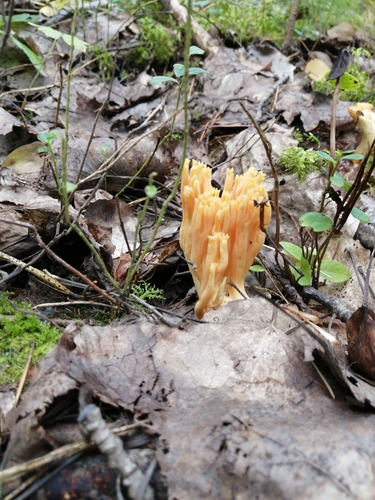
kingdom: Fungi
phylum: Basidiomycota
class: Agaricomycetes
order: Gomphales
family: Gomphaceae
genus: Ramaria
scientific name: Ramaria pallida
